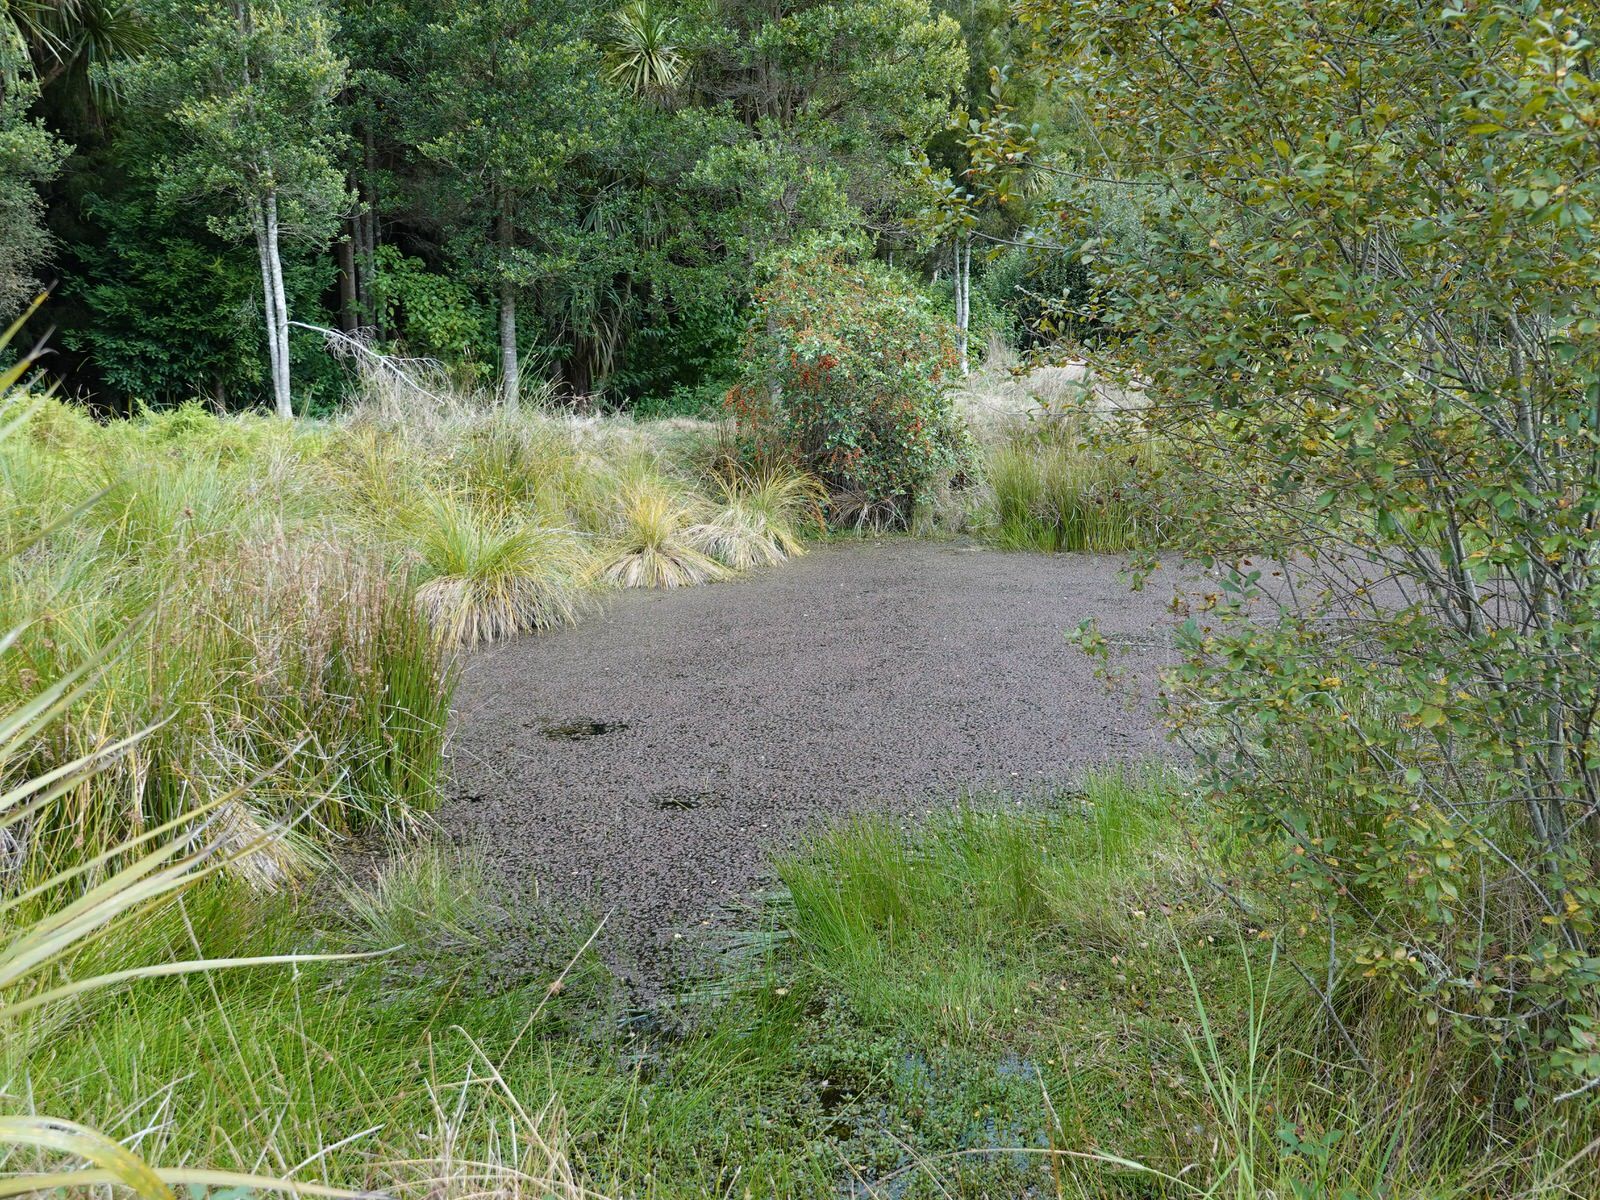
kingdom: Animalia
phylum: Chordata
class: Amphibia
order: Anura
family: Pelodryadidae
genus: Ranoidea
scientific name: Ranoidea aurea
